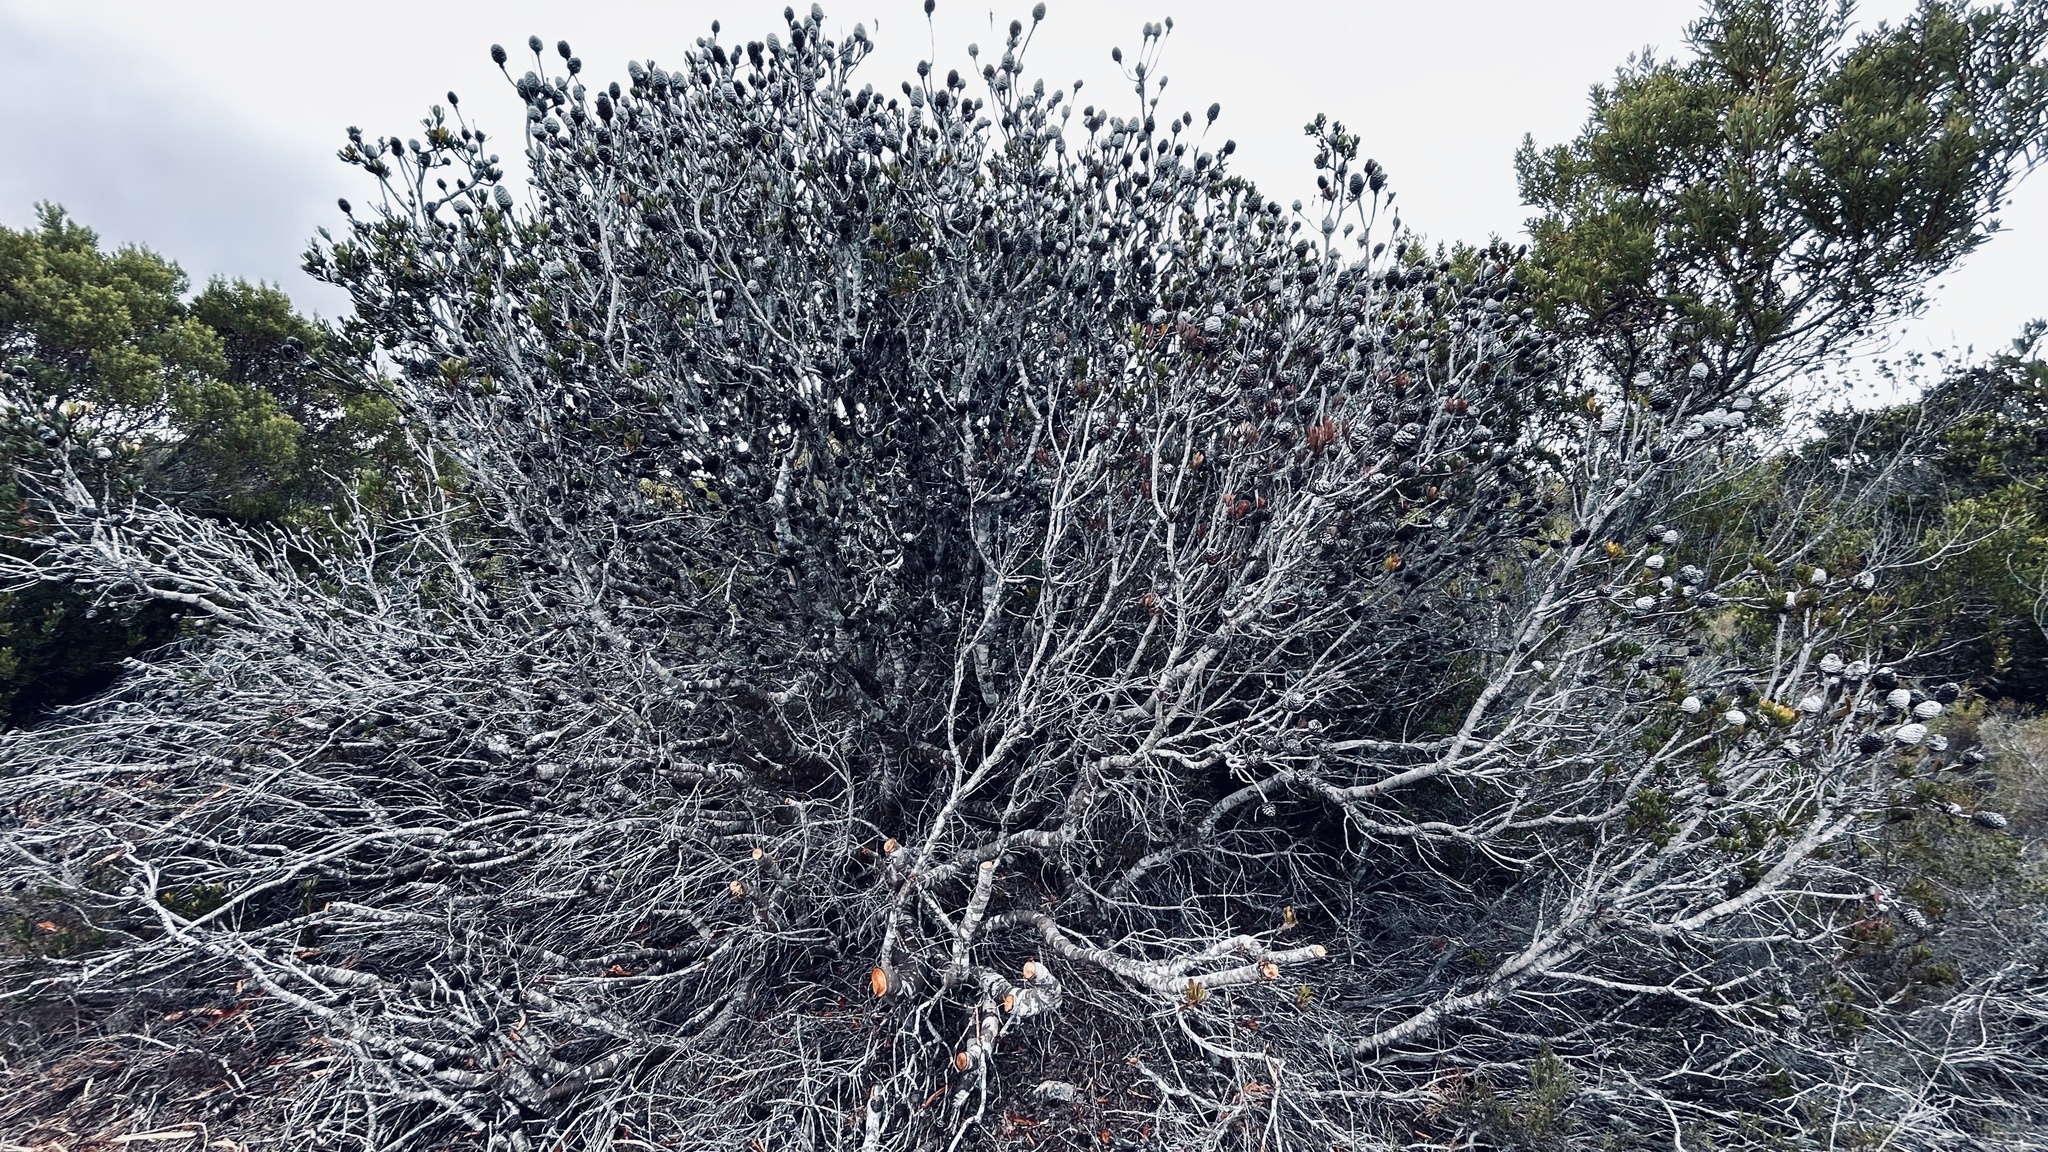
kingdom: Plantae
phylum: Tracheophyta
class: Magnoliopsida
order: Proteales
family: Proteaceae
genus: Leucadendron
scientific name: Leucadendron muirii
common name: Silver-ball conebush
